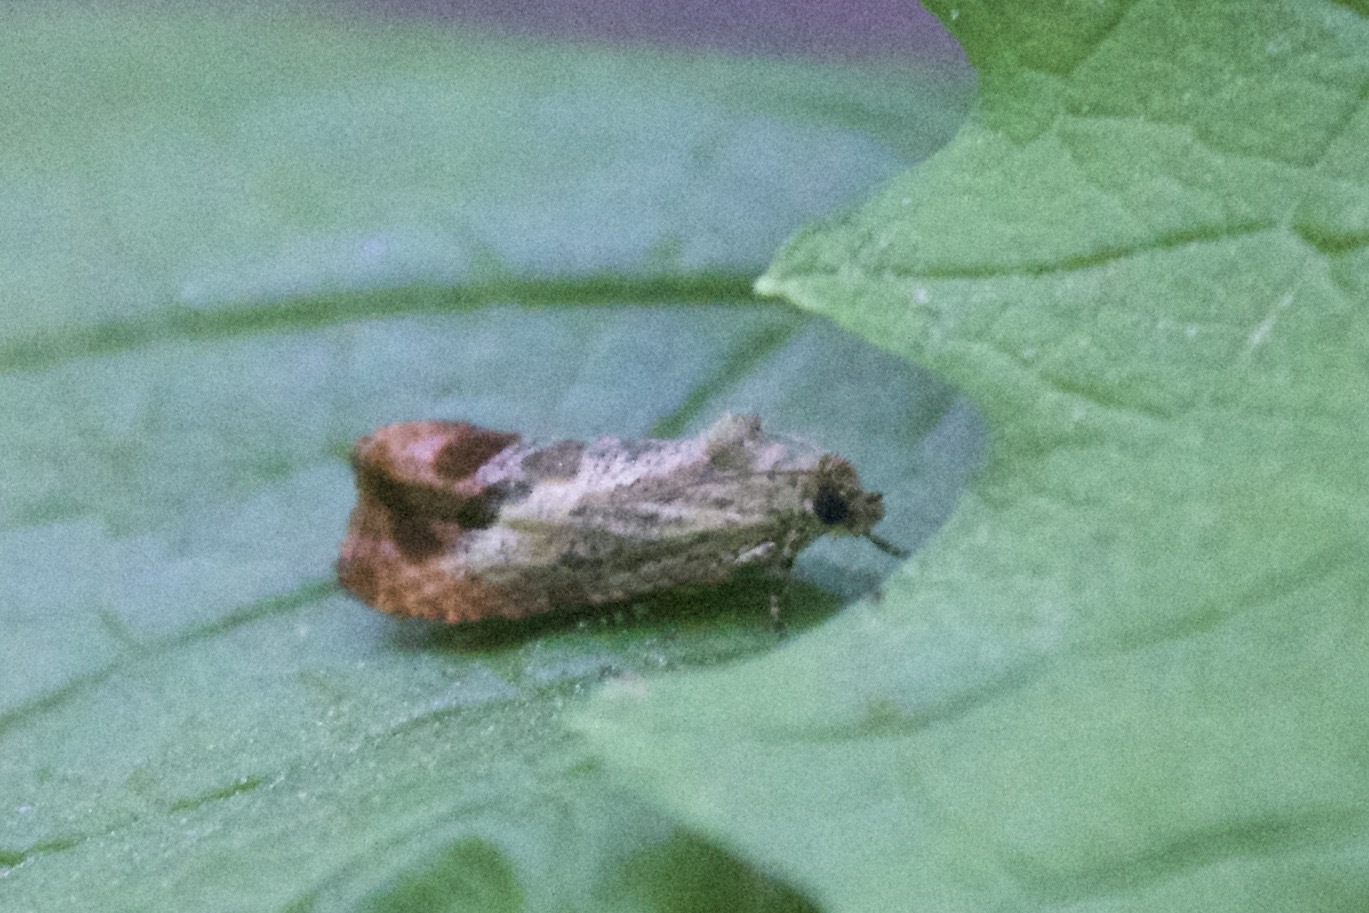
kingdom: Animalia
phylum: Arthropoda
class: Insecta
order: Lepidoptera
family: Tortricidae
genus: Olethreutes
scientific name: Olethreutes hamameliana
